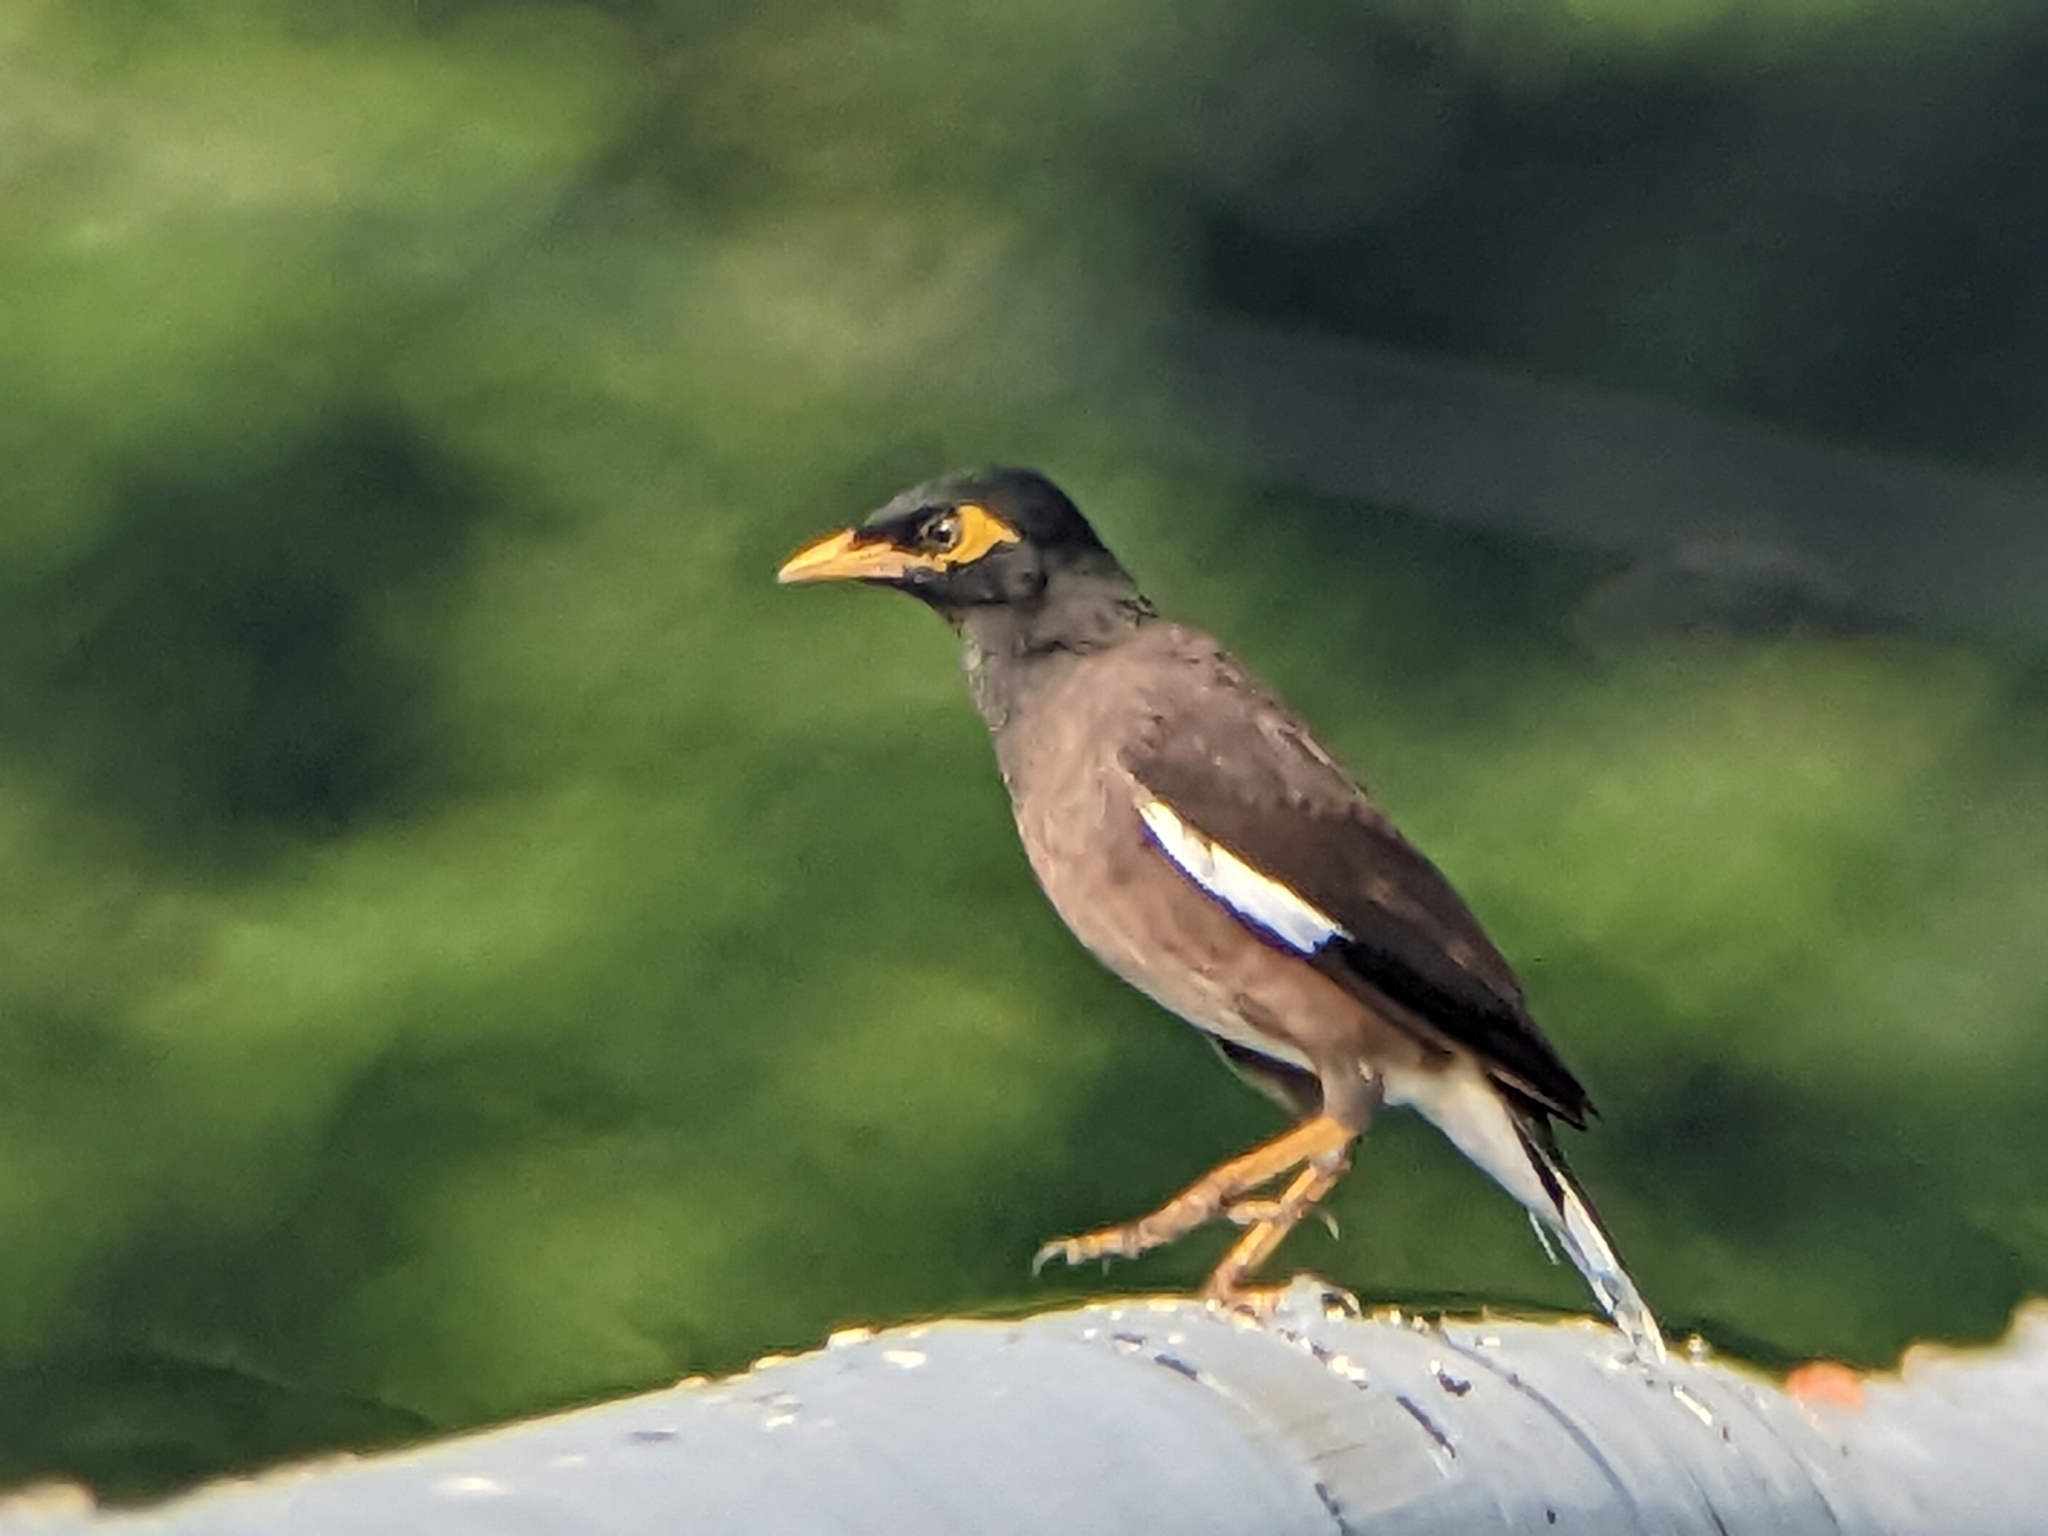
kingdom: Animalia
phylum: Chordata
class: Aves
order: Passeriformes
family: Sturnidae
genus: Acridotheres
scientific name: Acridotheres tristis
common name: Common myna
